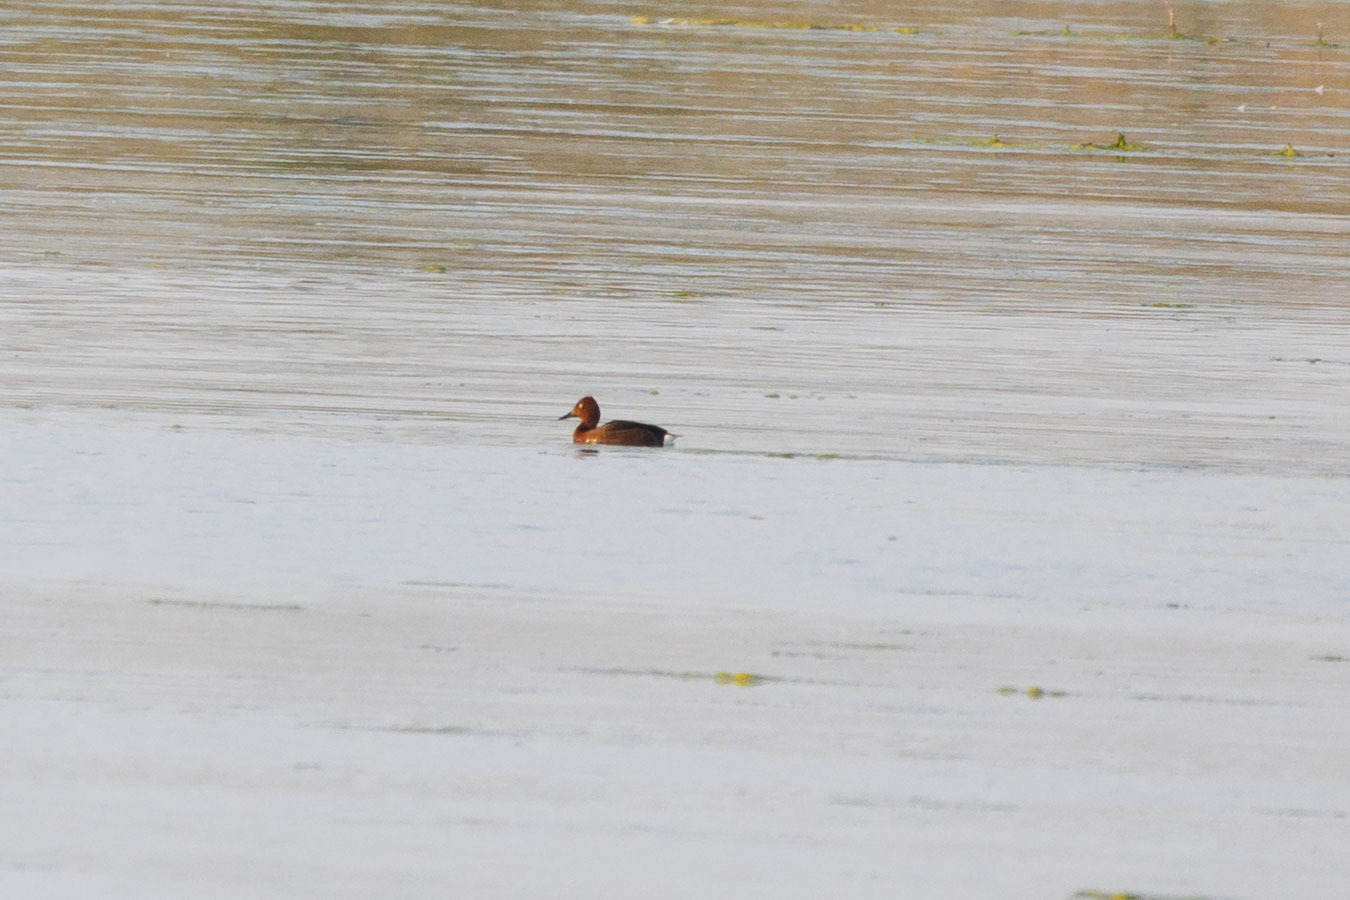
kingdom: Animalia
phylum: Chordata
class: Aves
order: Anseriformes
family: Anatidae
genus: Aythya
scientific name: Aythya nyroca
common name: Ferruginous duck
